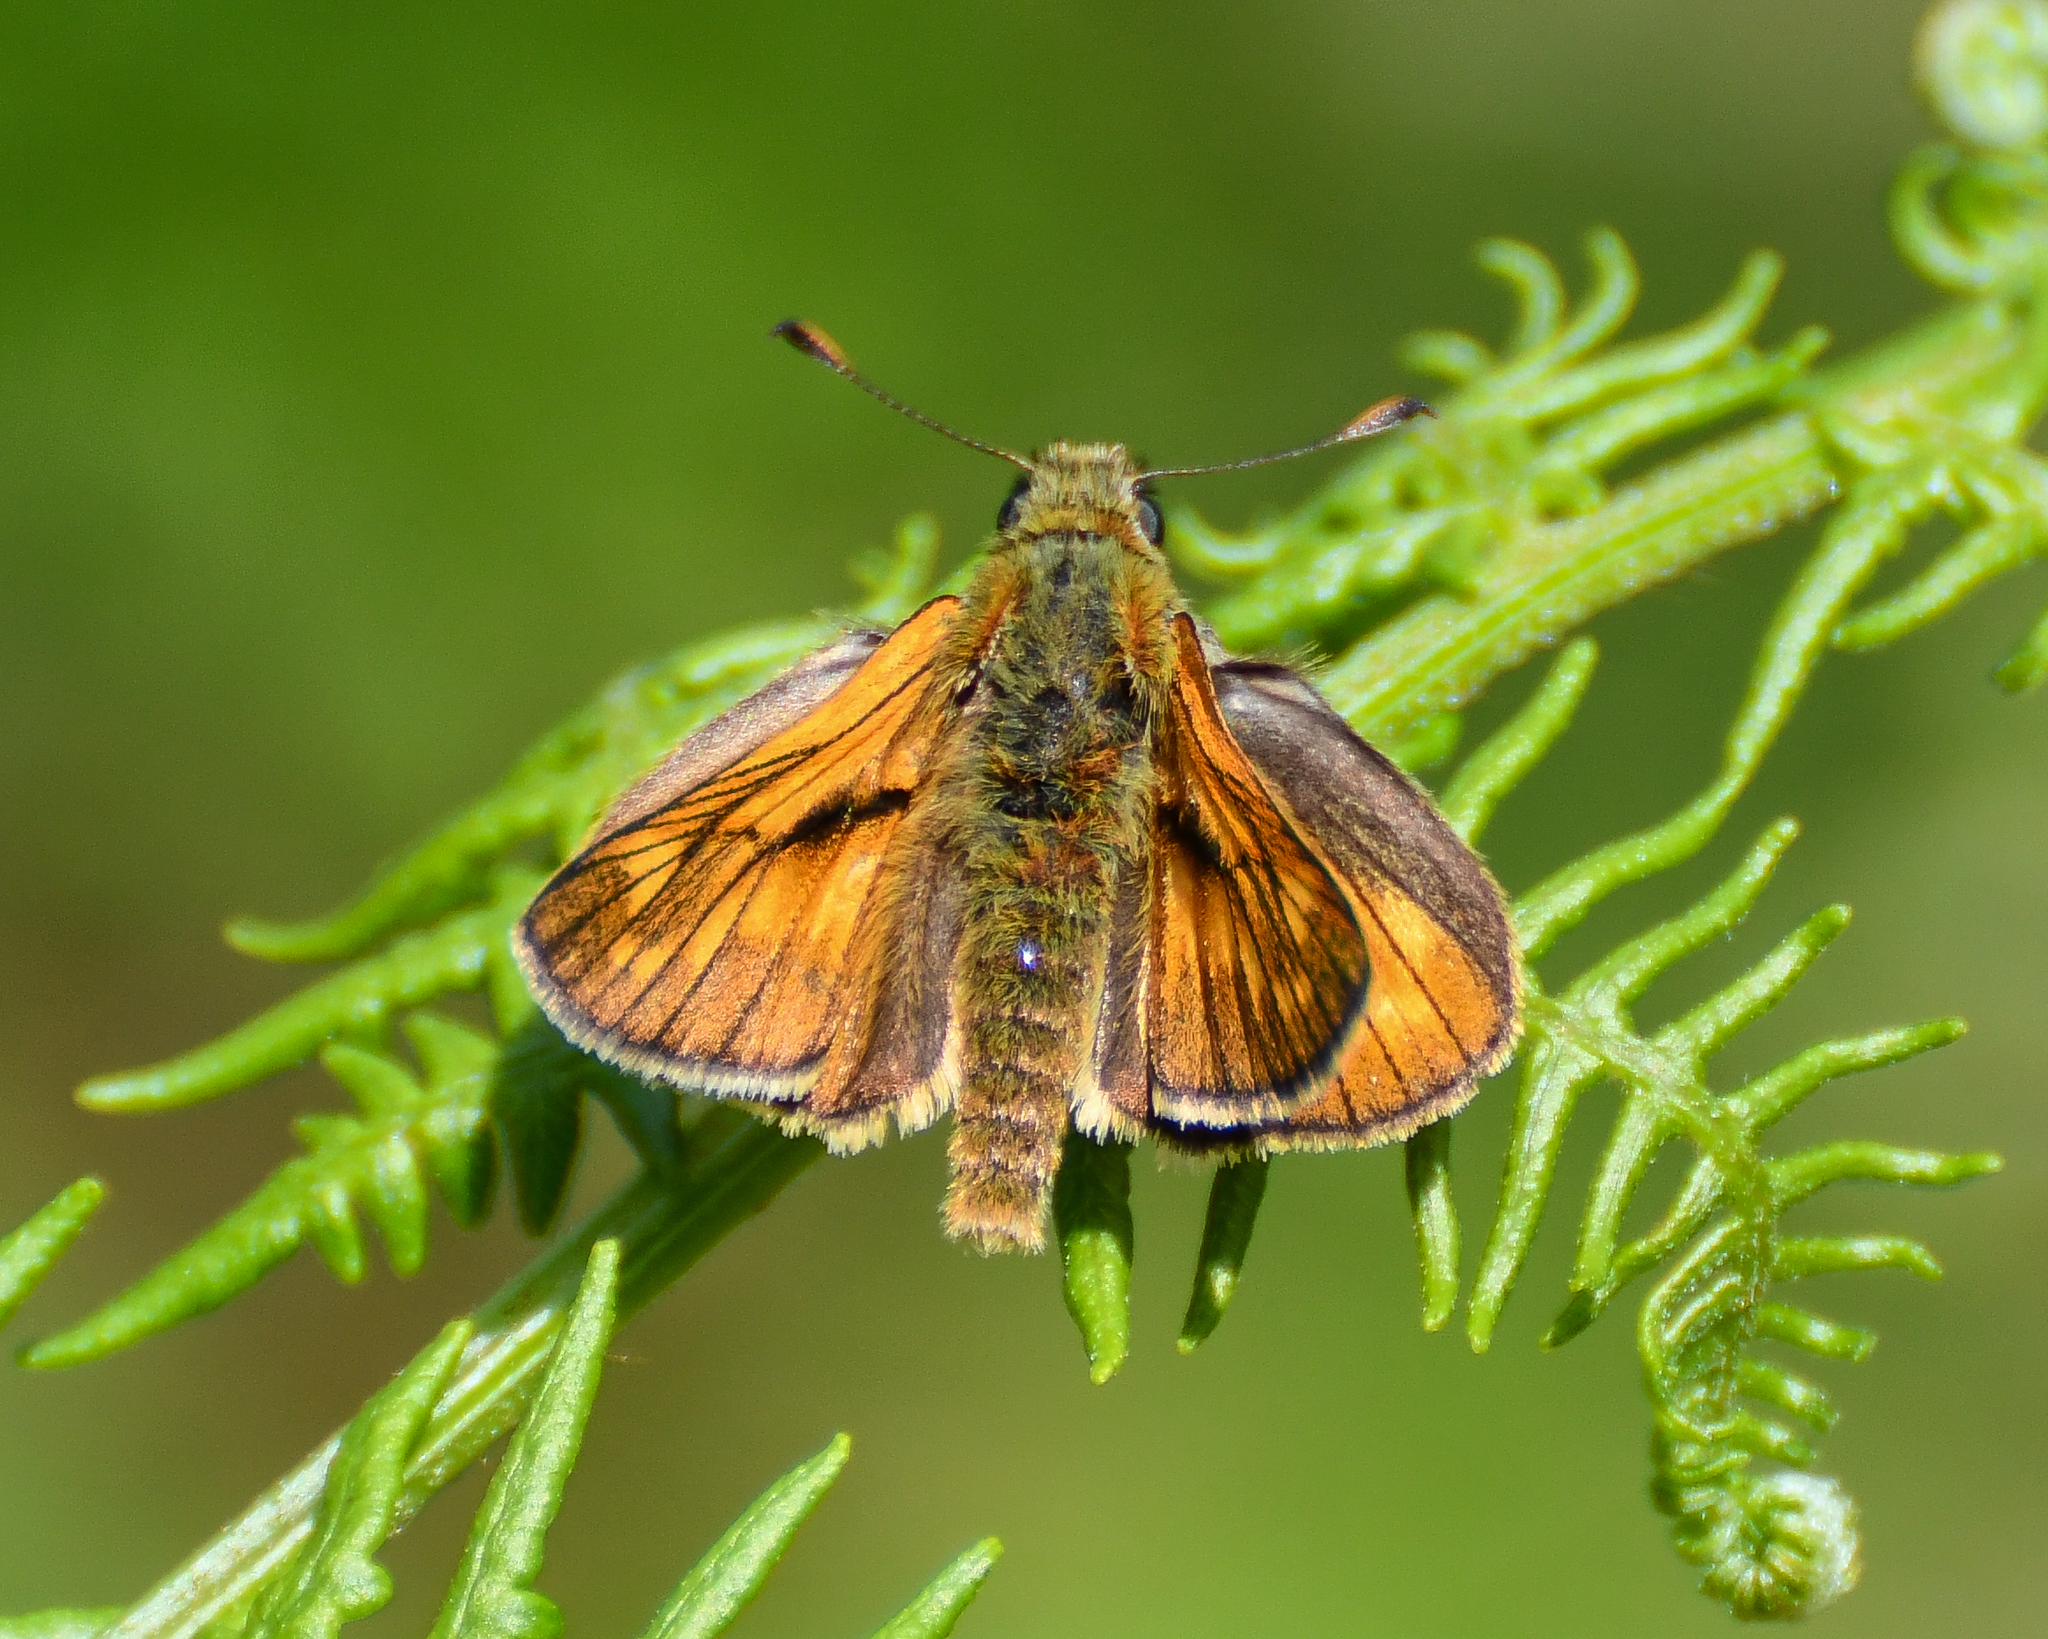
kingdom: Animalia
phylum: Arthropoda
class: Insecta
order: Lepidoptera
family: Hesperiidae
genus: Ochlodes
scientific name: Ochlodes venata
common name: Large skipper
